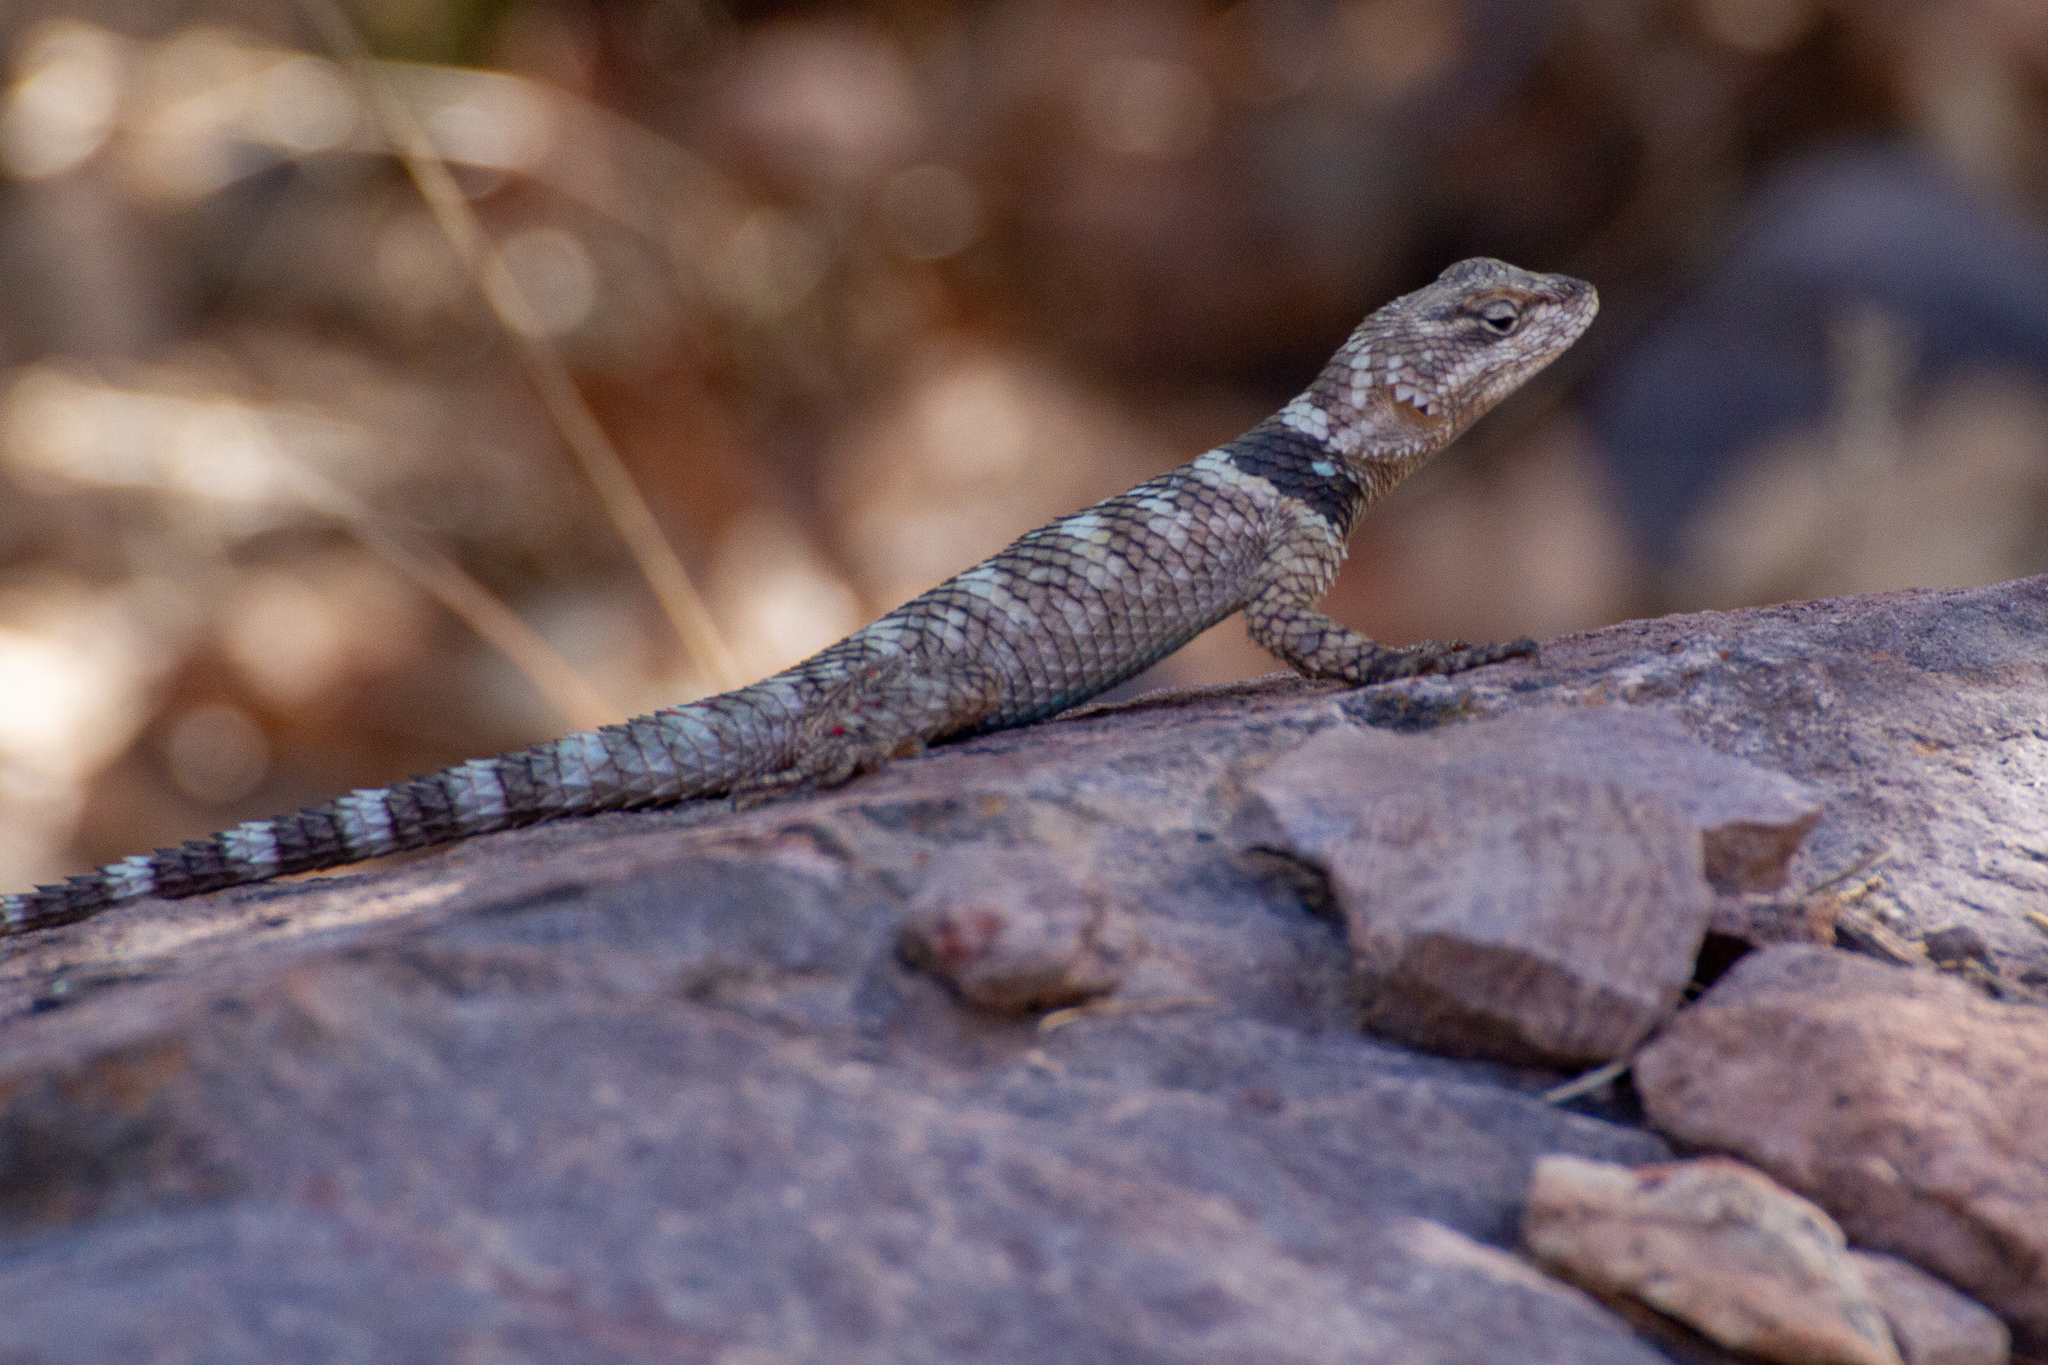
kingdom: Animalia
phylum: Chordata
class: Squamata
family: Phrynosomatidae
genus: Sceloporus
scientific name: Sceloporus poinsettii
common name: Crevice spiny lizard
